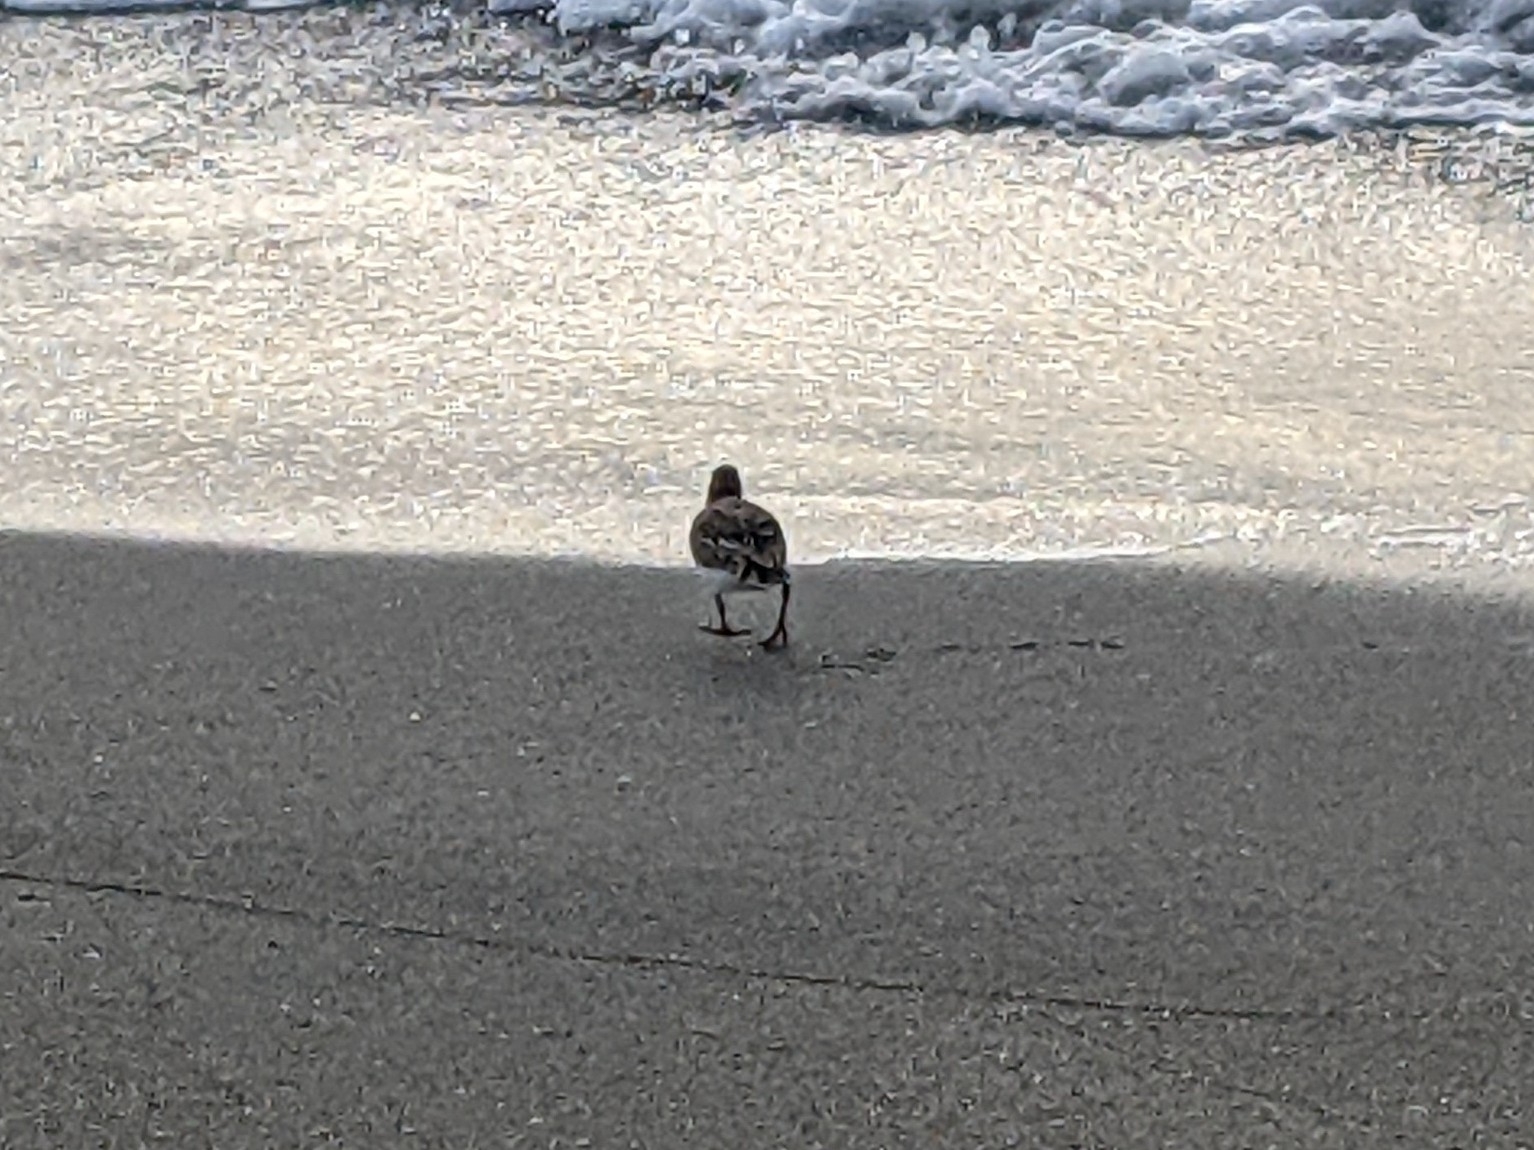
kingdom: Animalia
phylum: Chordata
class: Aves
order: Charadriiformes
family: Scolopacidae
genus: Arenaria
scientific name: Arenaria interpres
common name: Ruddy turnstone
